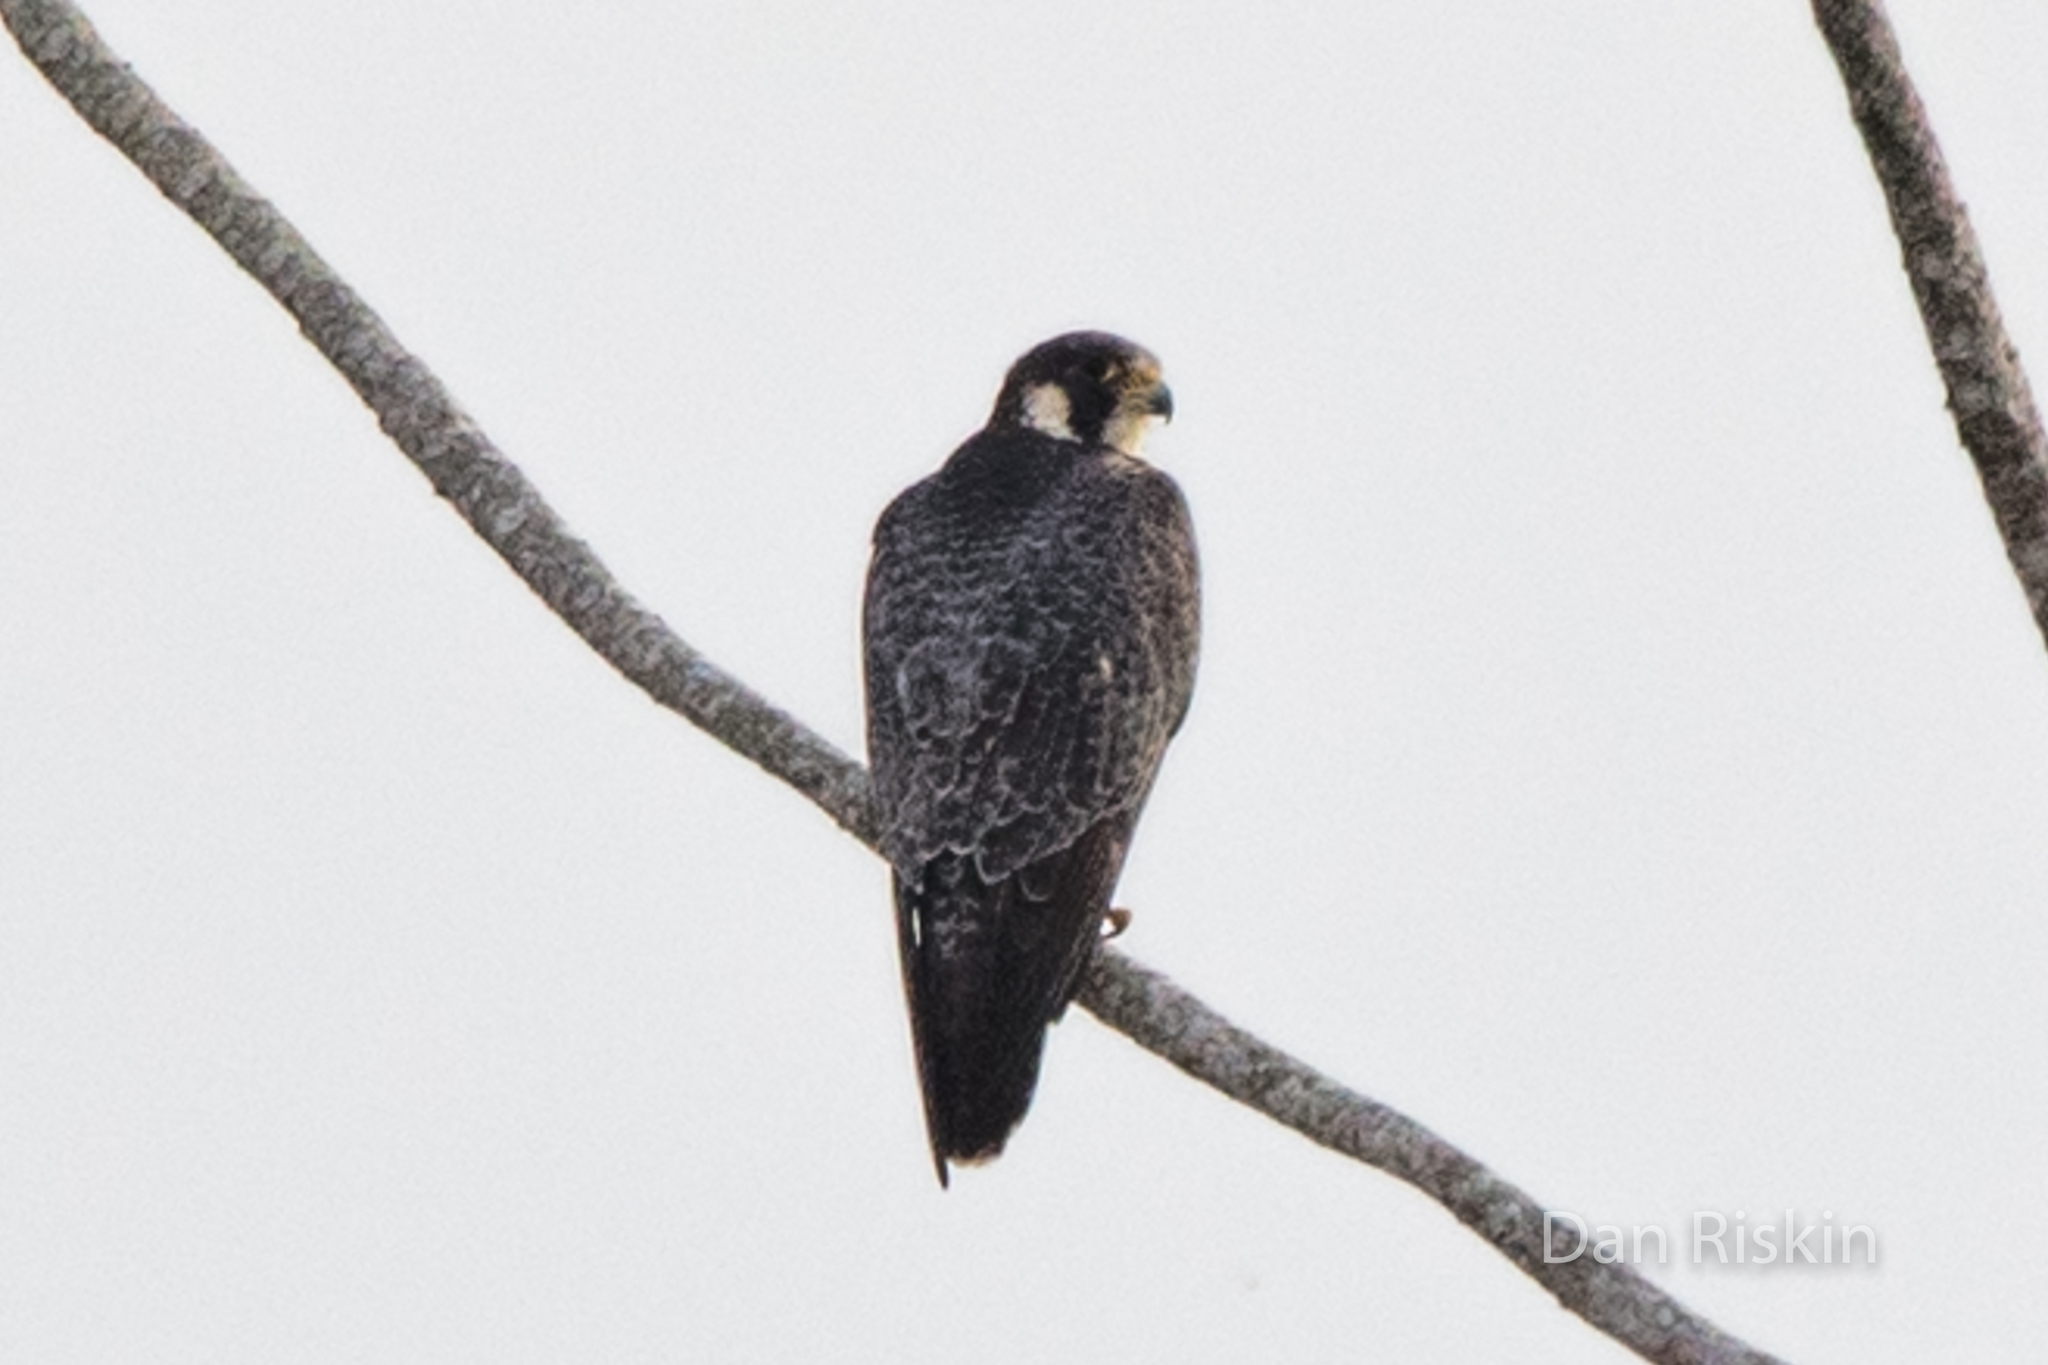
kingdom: Animalia
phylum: Chordata
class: Aves
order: Falconiformes
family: Falconidae
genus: Falco
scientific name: Falco peregrinus
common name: Peregrine falcon
